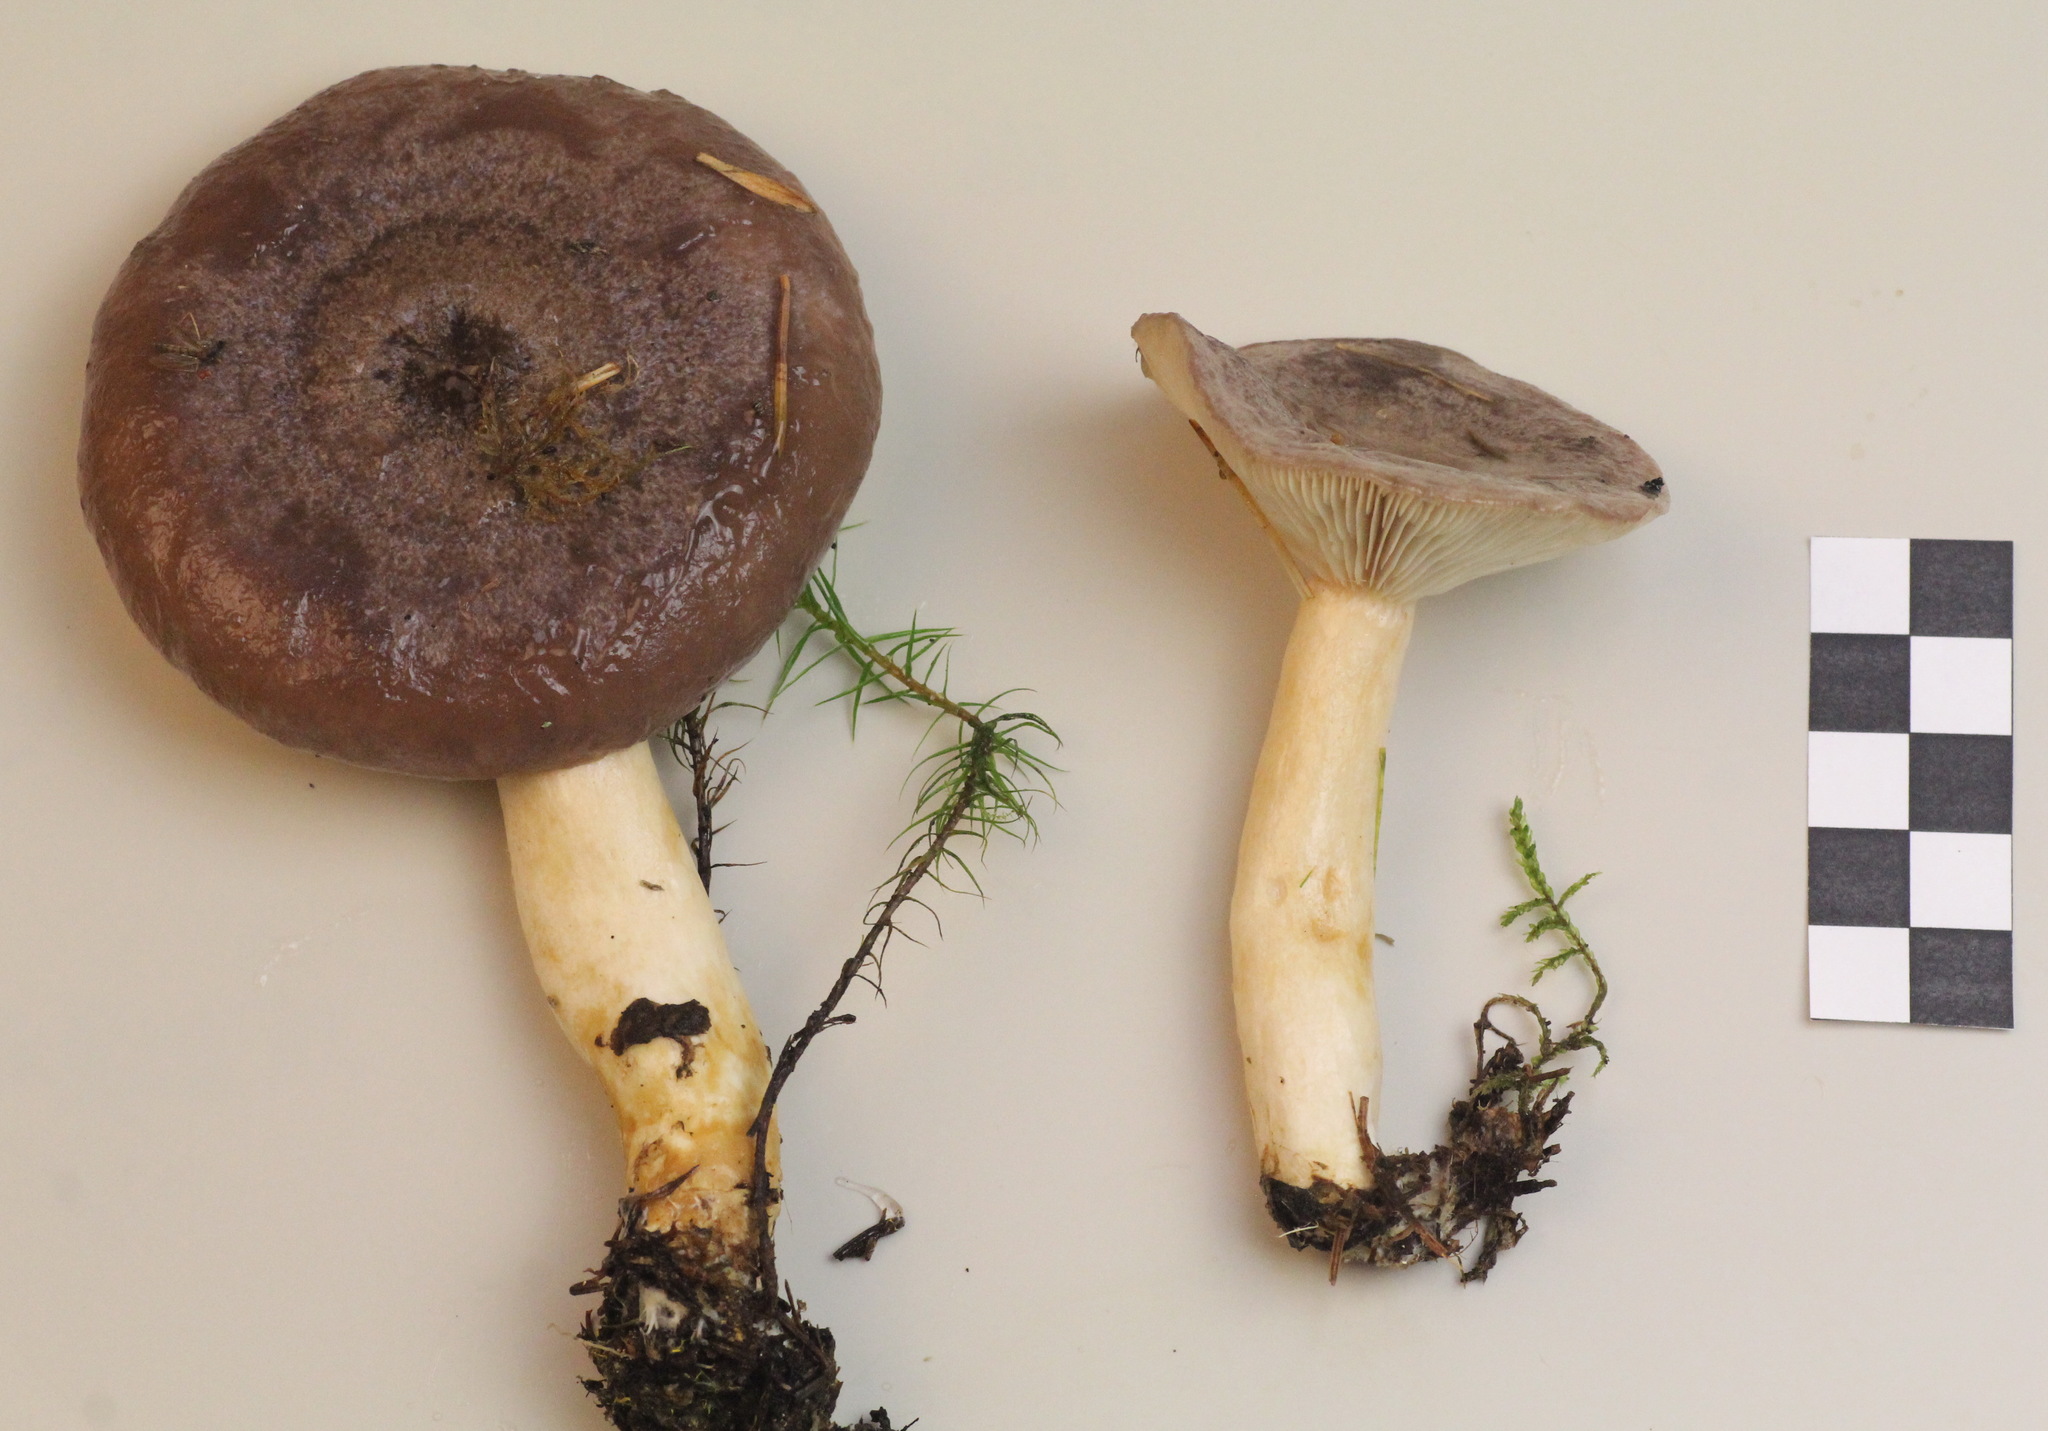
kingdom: Fungi
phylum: Basidiomycota
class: Agaricomycetes
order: Russulales
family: Russulaceae
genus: Lactarius
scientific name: Lactarius trivialis
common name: Tacked milkcap
